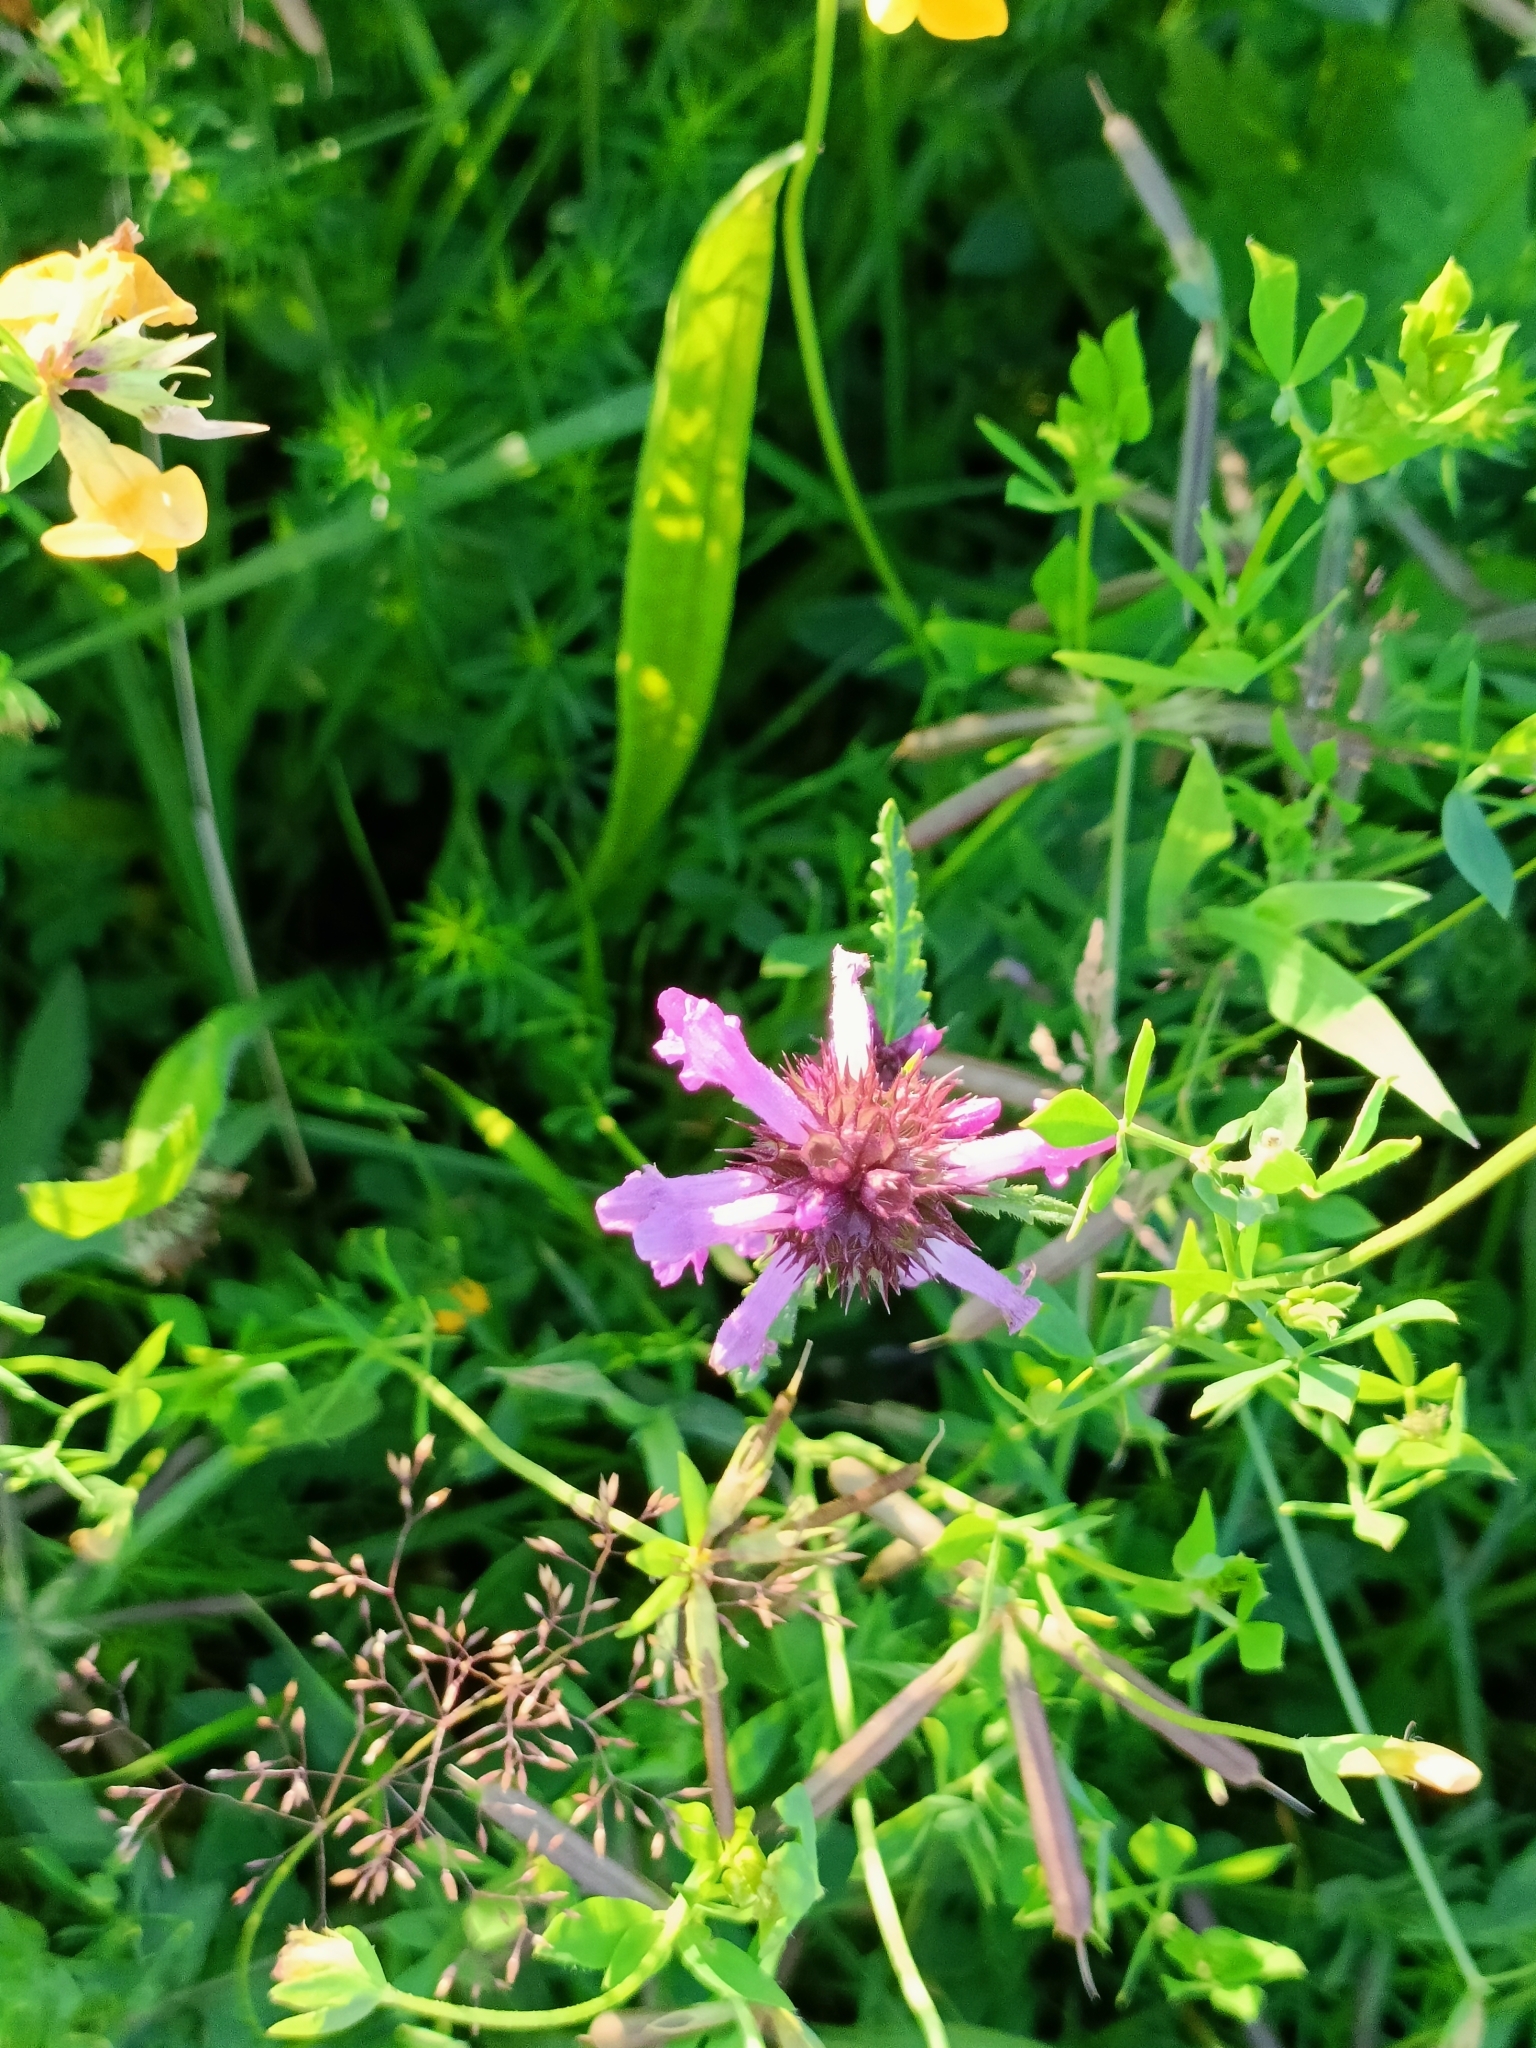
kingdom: Plantae
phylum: Tracheophyta
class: Magnoliopsida
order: Lamiales
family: Lamiaceae
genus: Betonica
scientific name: Betonica officinalis
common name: Bishop's-wort
